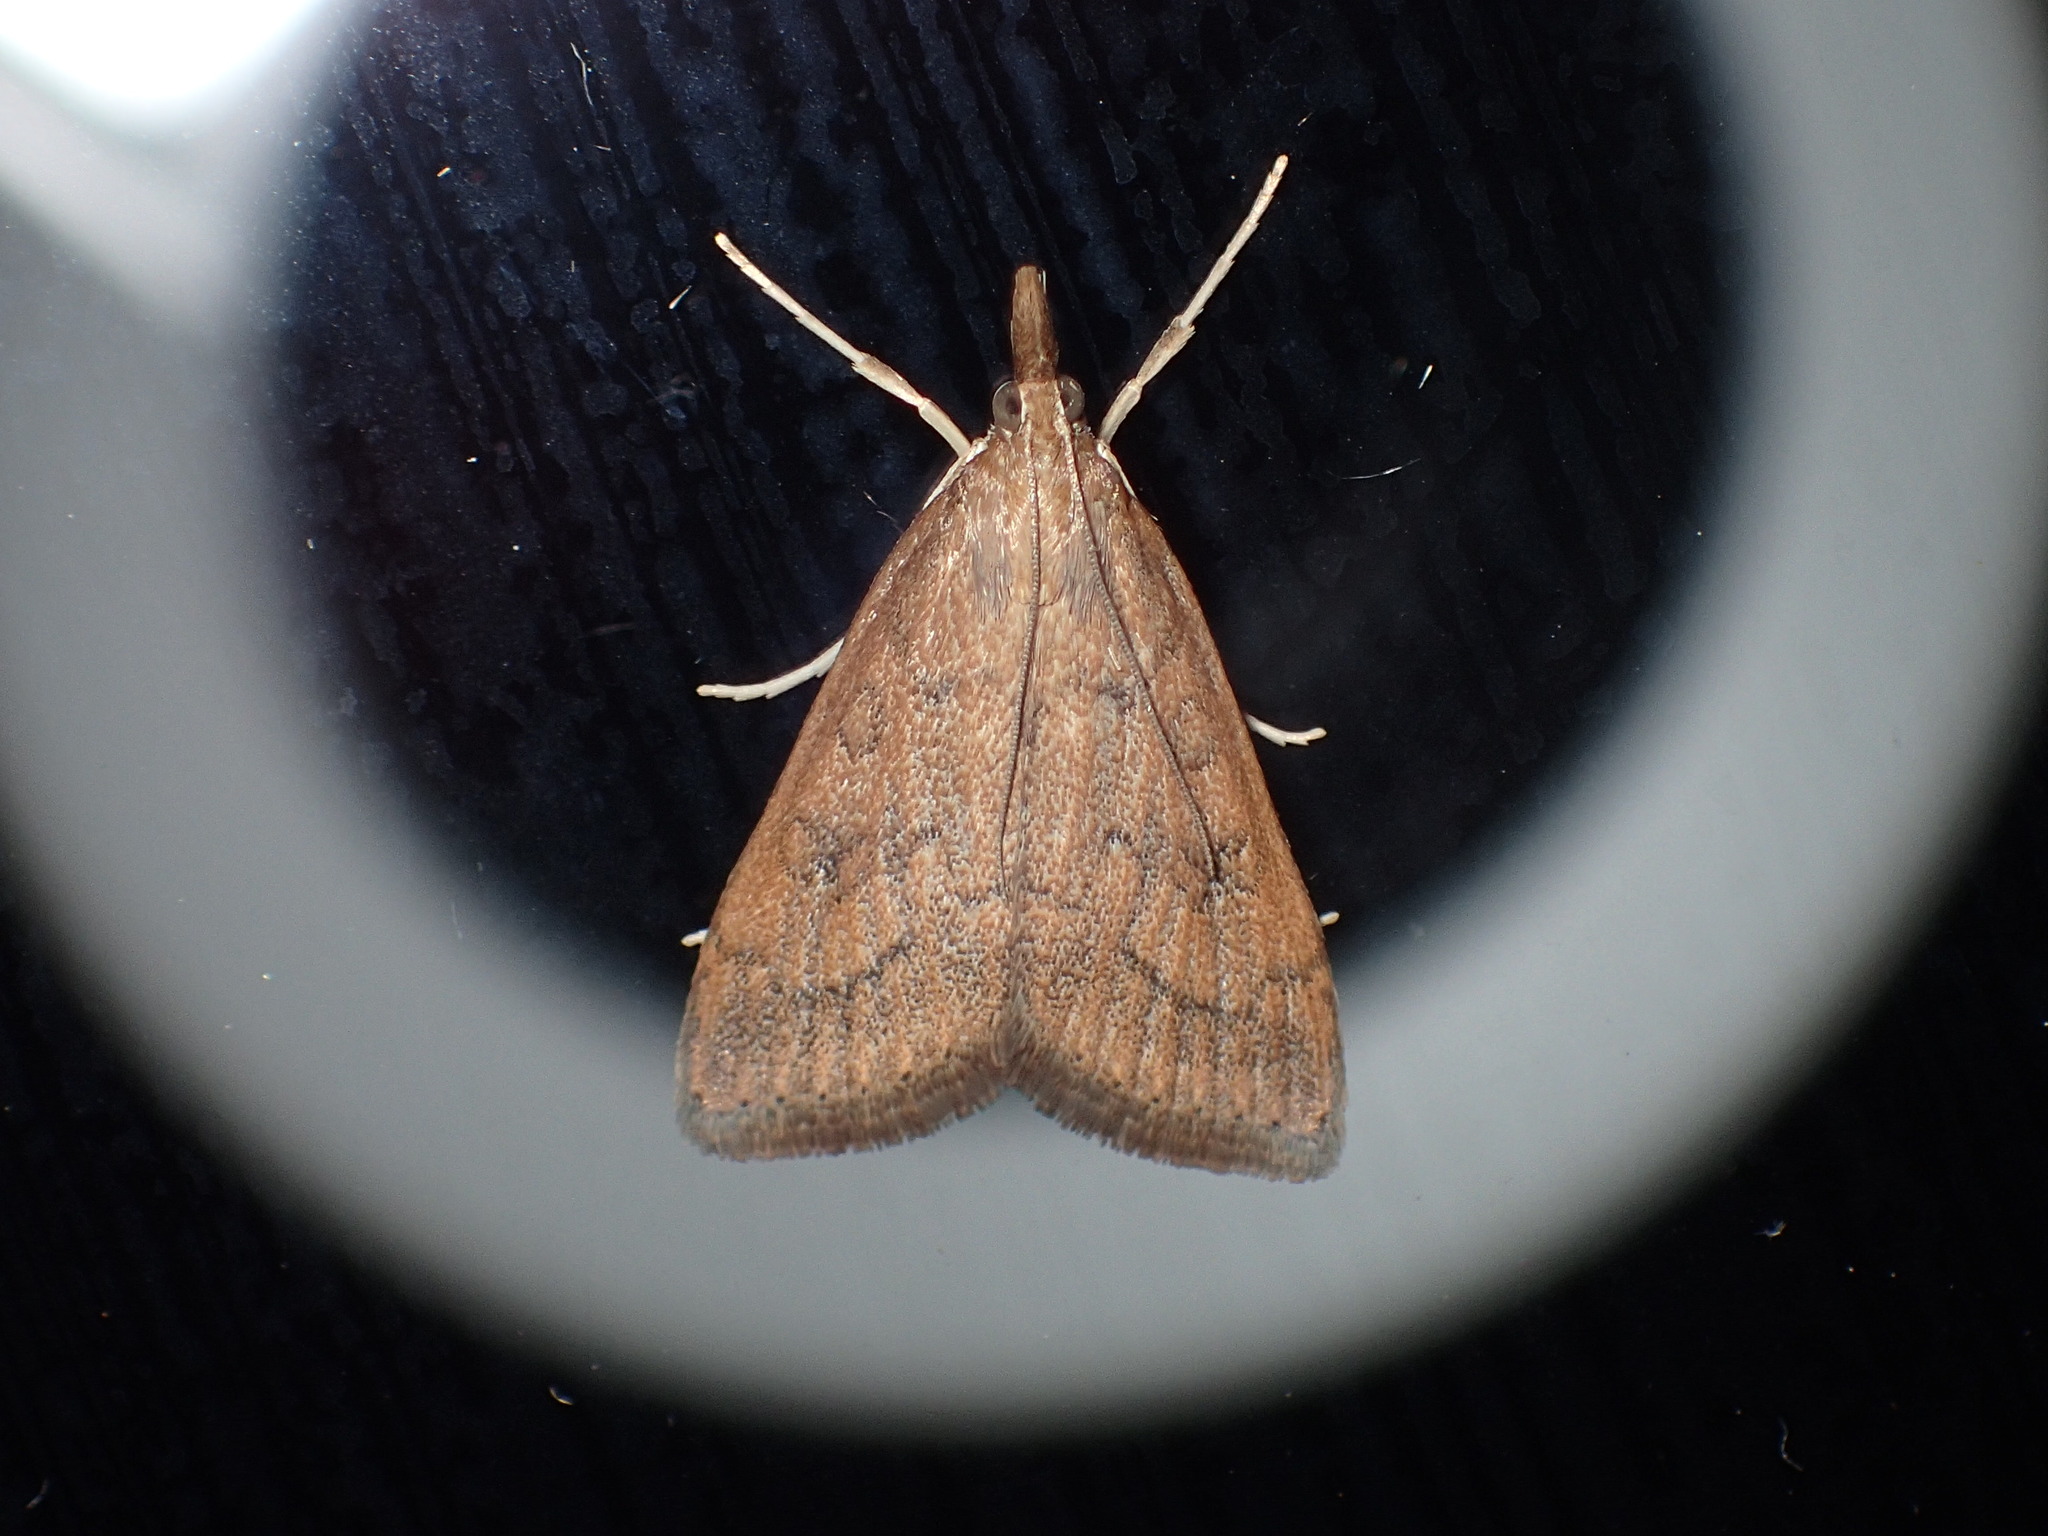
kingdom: Animalia
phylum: Arthropoda
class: Insecta
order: Lepidoptera
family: Crambidae
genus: Udea
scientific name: Udea rubigalis
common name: Celery leaftier moth
